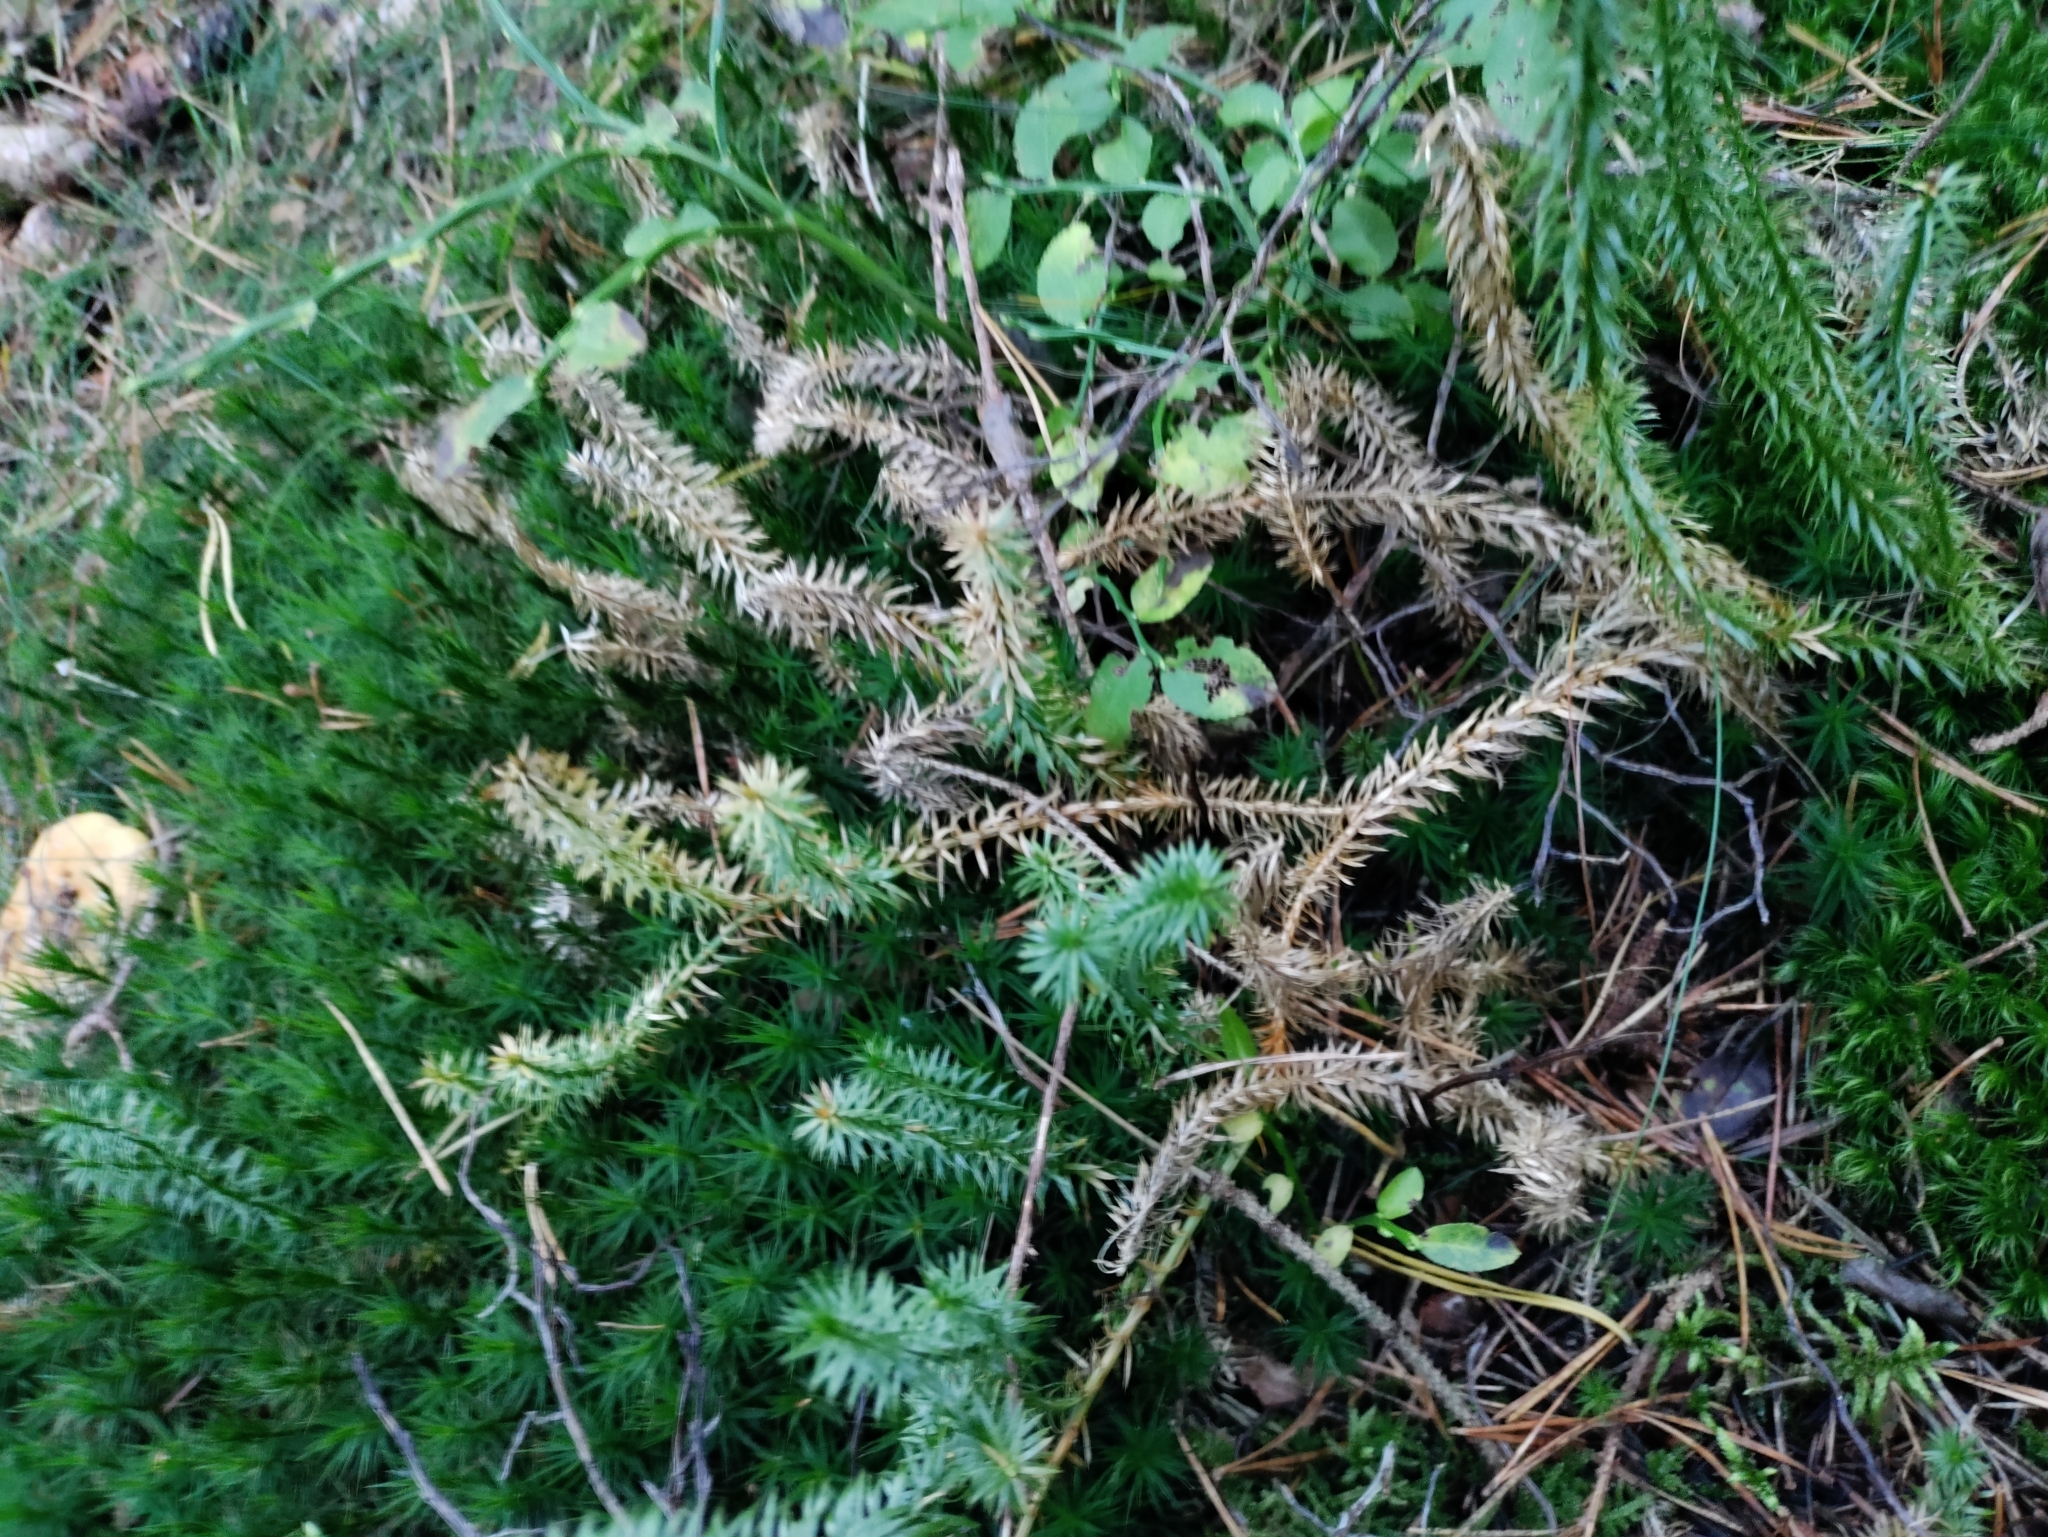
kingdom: Plantae
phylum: Tracheophyta
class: Lycopodiopsida
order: Lycopodiales
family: Lycopodiaceae
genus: Spinulum
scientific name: Spinulum annotinum
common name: Interrupted club-moss
